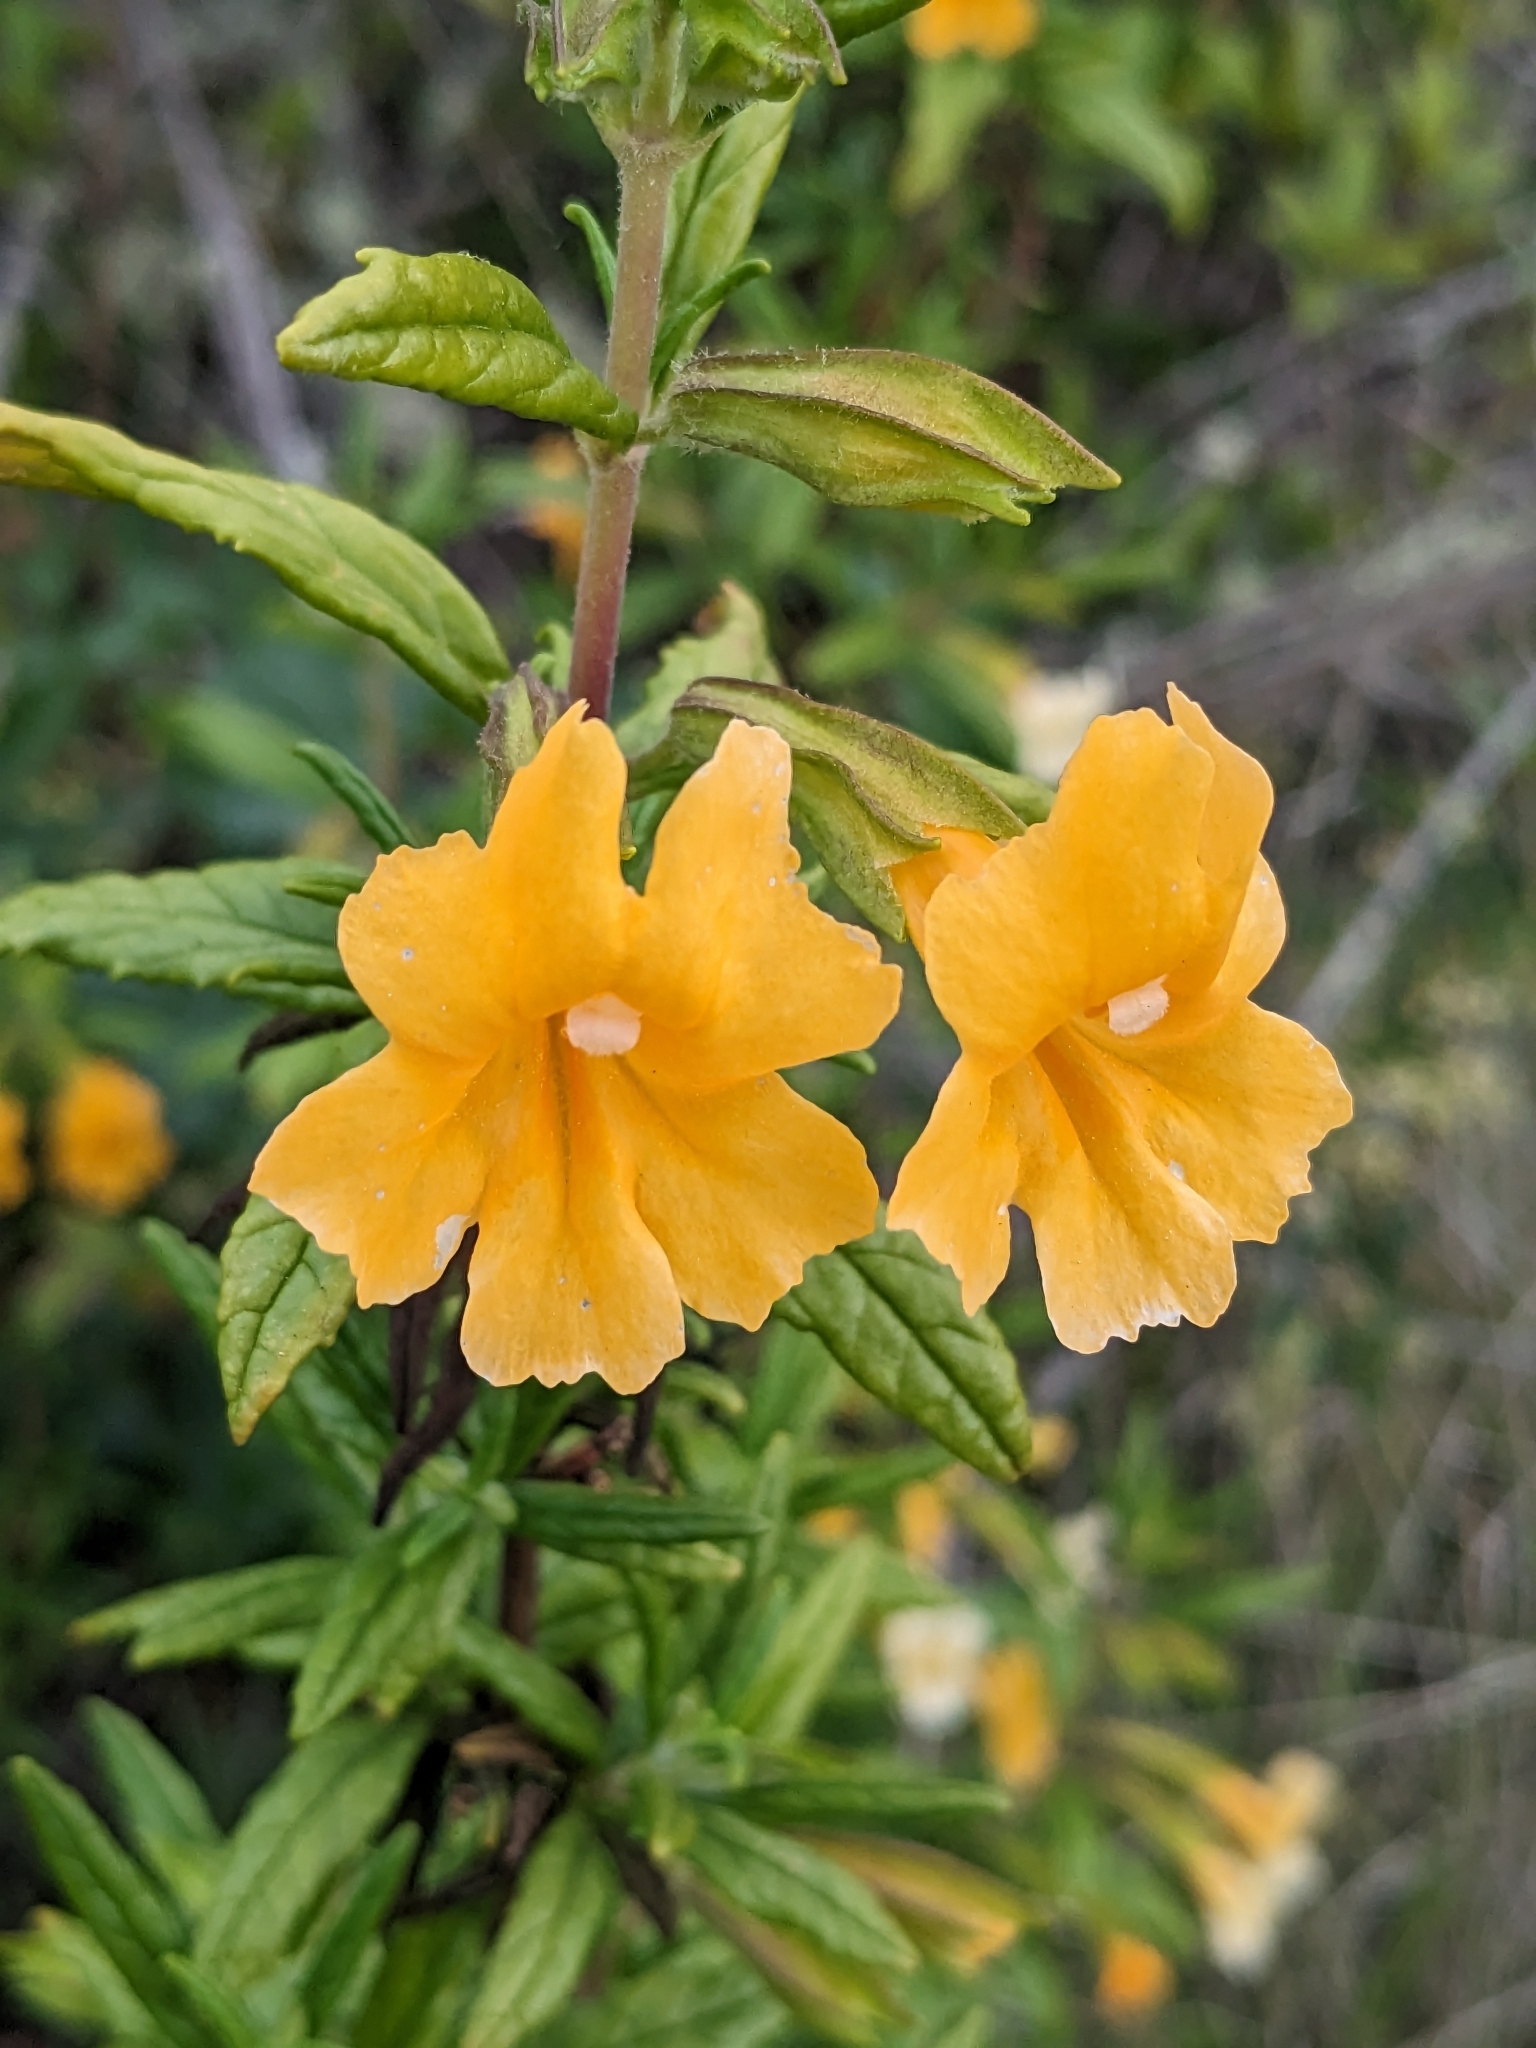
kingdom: Plantae
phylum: Tracheophyta
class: Magnoliopsida
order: Lamiales
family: Phrymaceae
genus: Diplacus
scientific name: Diplacus aurantiacus
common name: Bush monkey-flower
